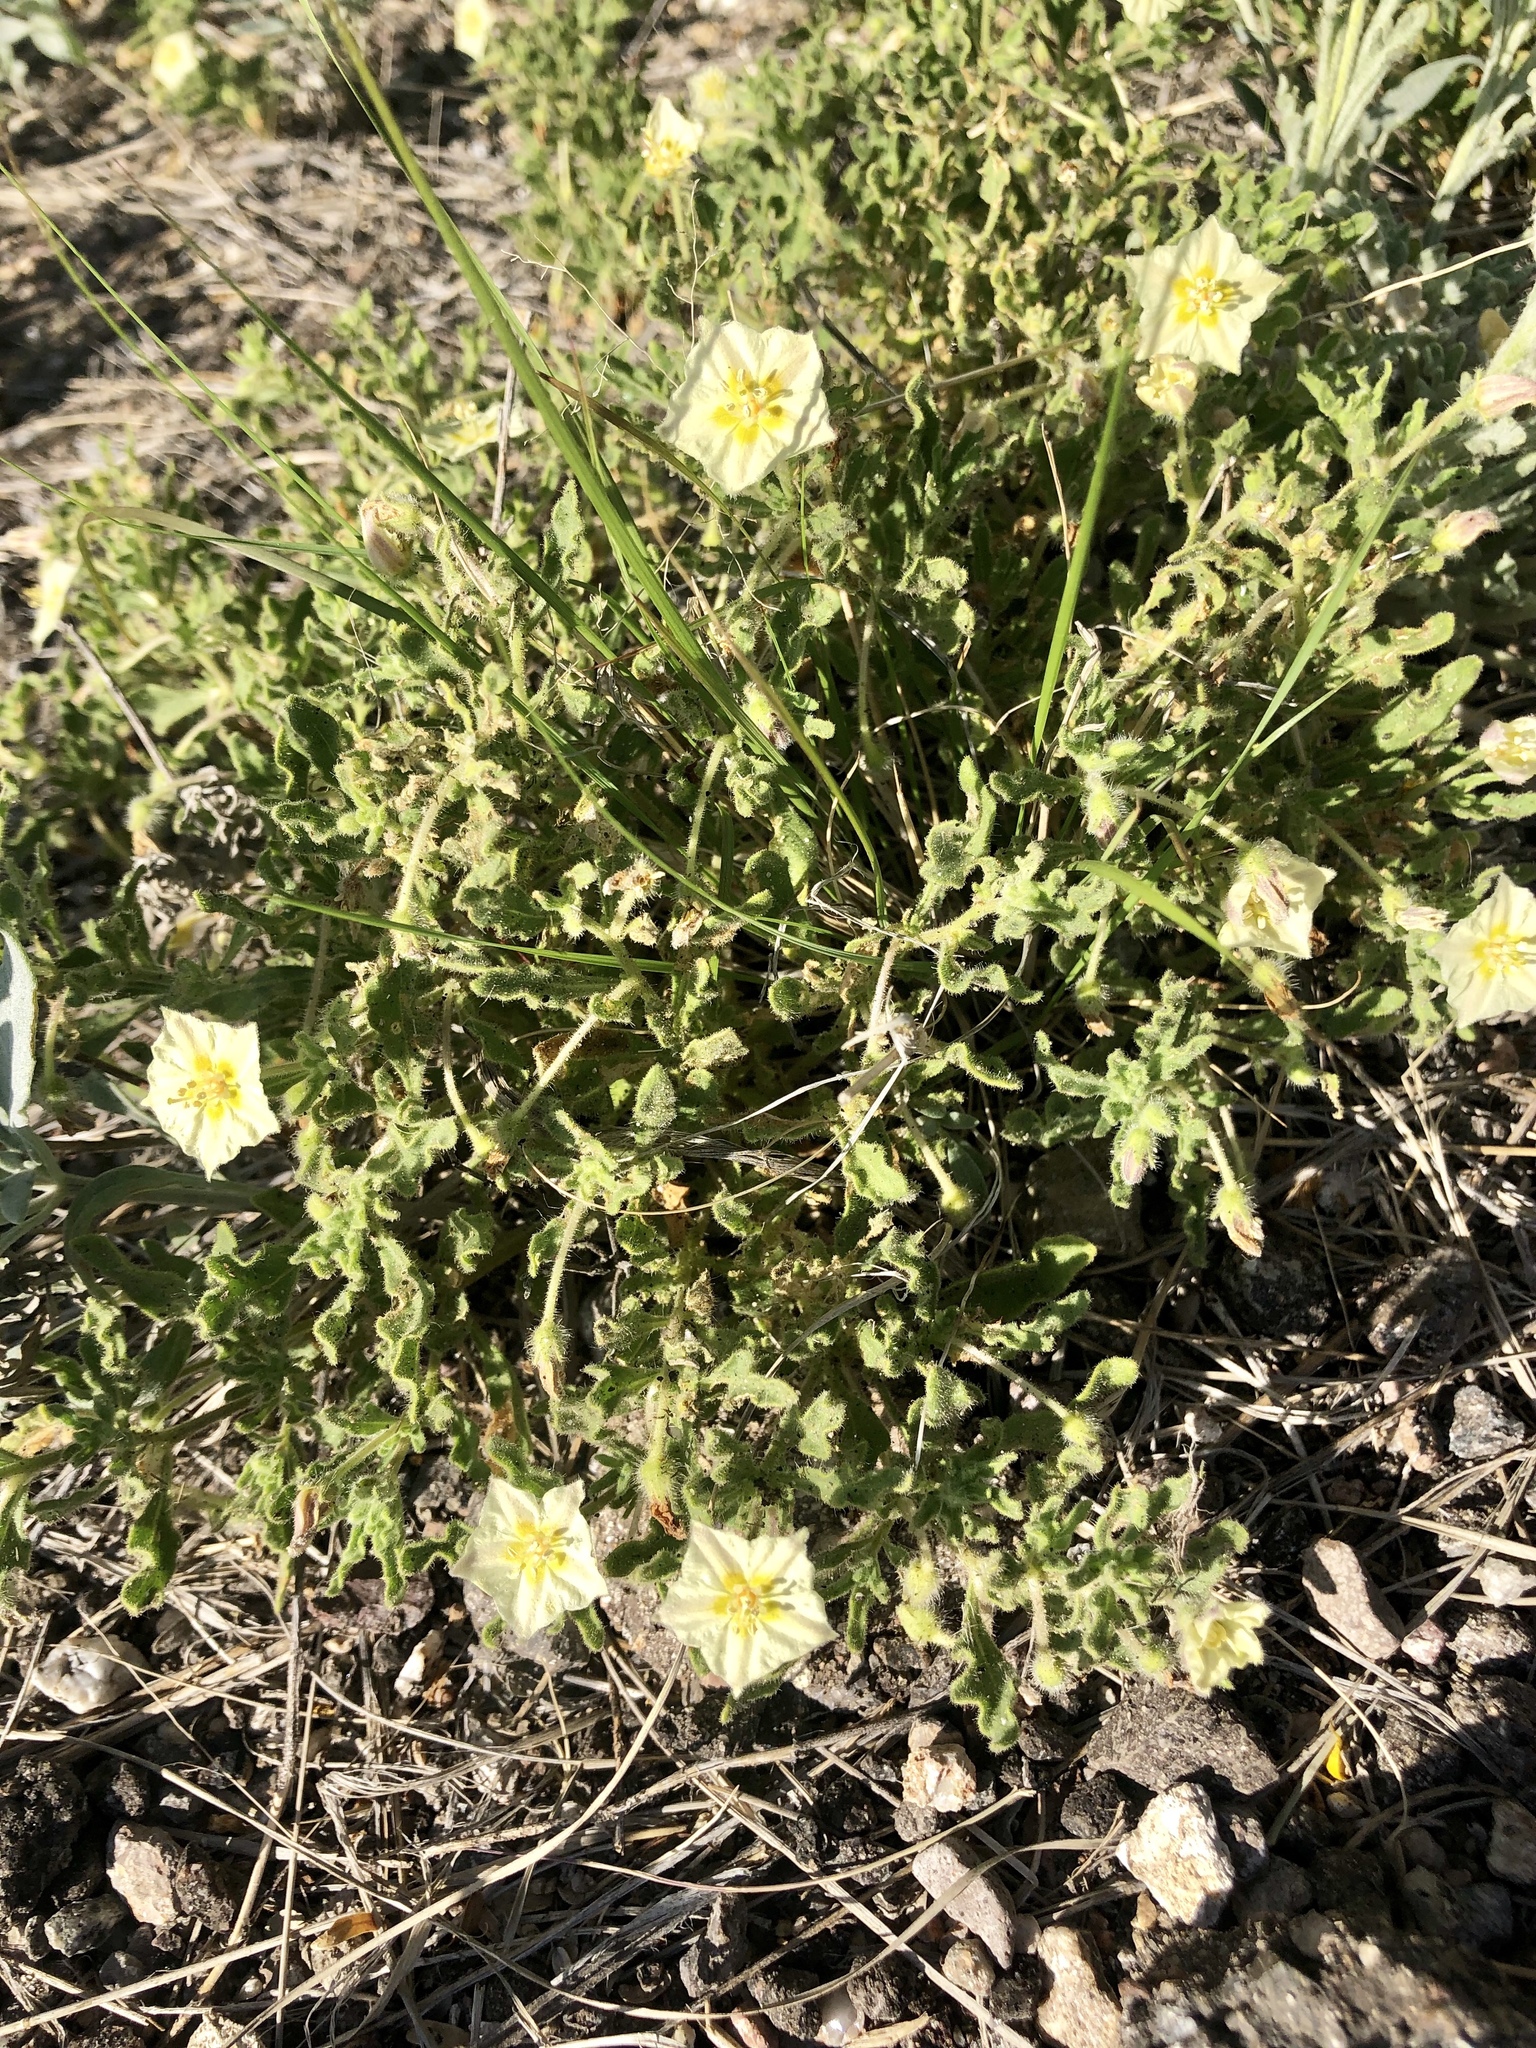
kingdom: Plantae
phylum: Tracheophyta
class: Magnoliopsida
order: Solanales
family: Solanaceae
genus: Chamaesaracha
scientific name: Chamaesaracha sordida
